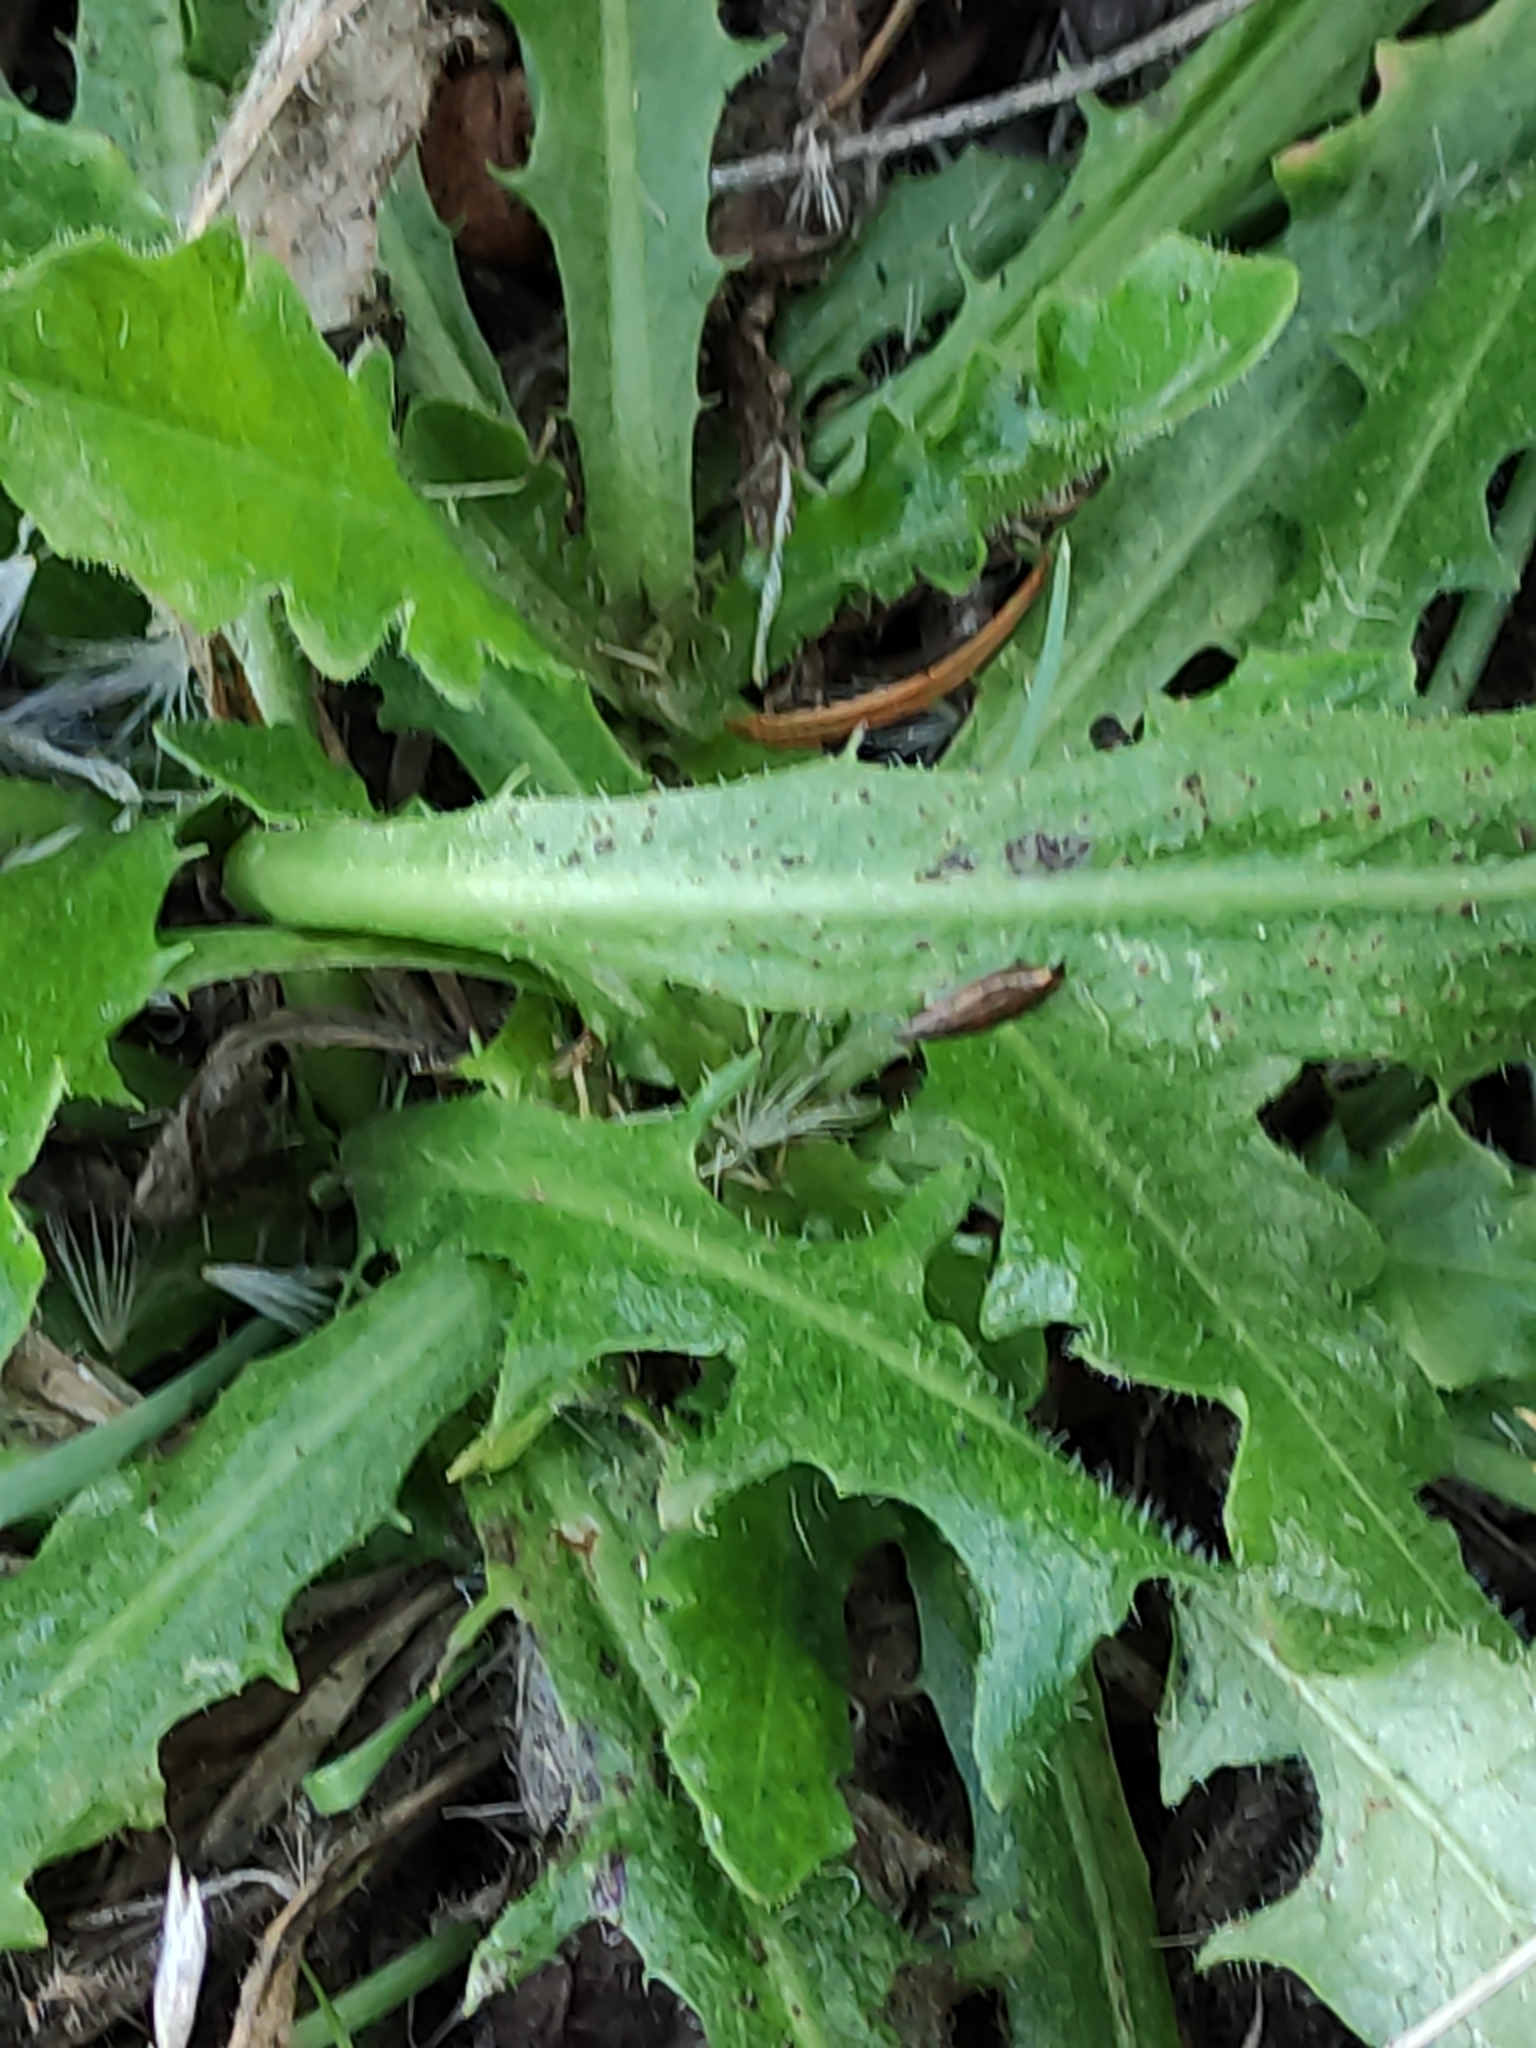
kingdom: Plantae
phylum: Tracheophyta
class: Magnoliopsida
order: Asterales
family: Asteraceae
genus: Hypochaeris
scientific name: Hypochaeris radicata
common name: Flatweed
